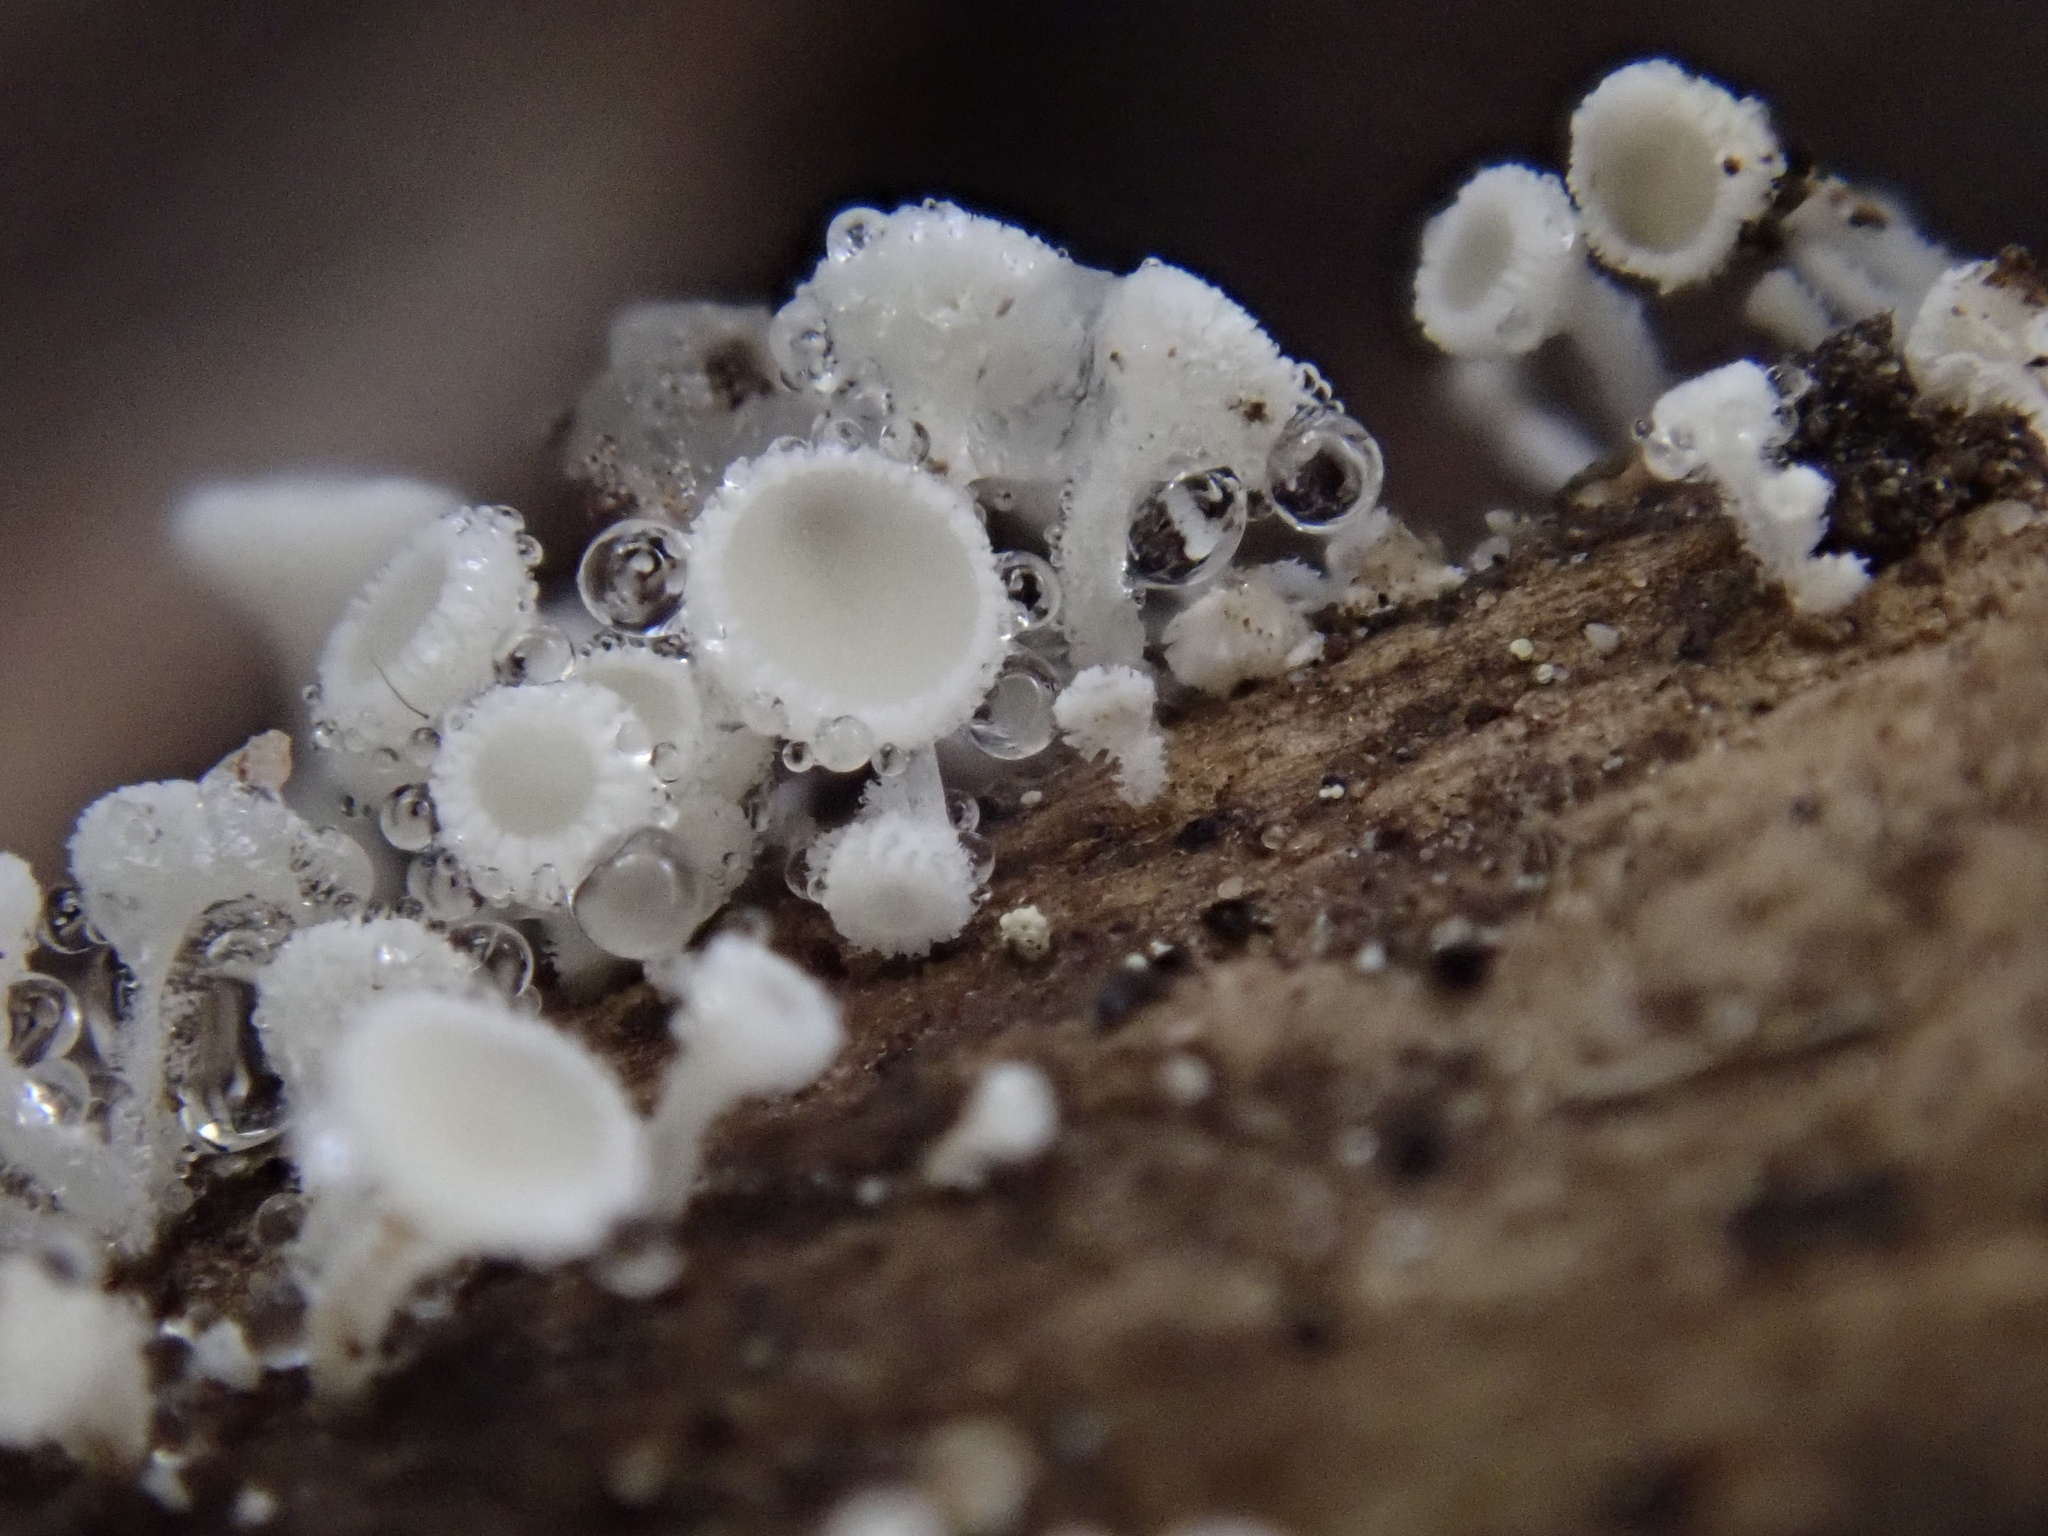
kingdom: Fungi
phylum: Ascomycota
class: Leotiomycetes
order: Helotiales
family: Lachnaceae
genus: Lachnum
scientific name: Lachnum virgineum
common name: Snowy disco
